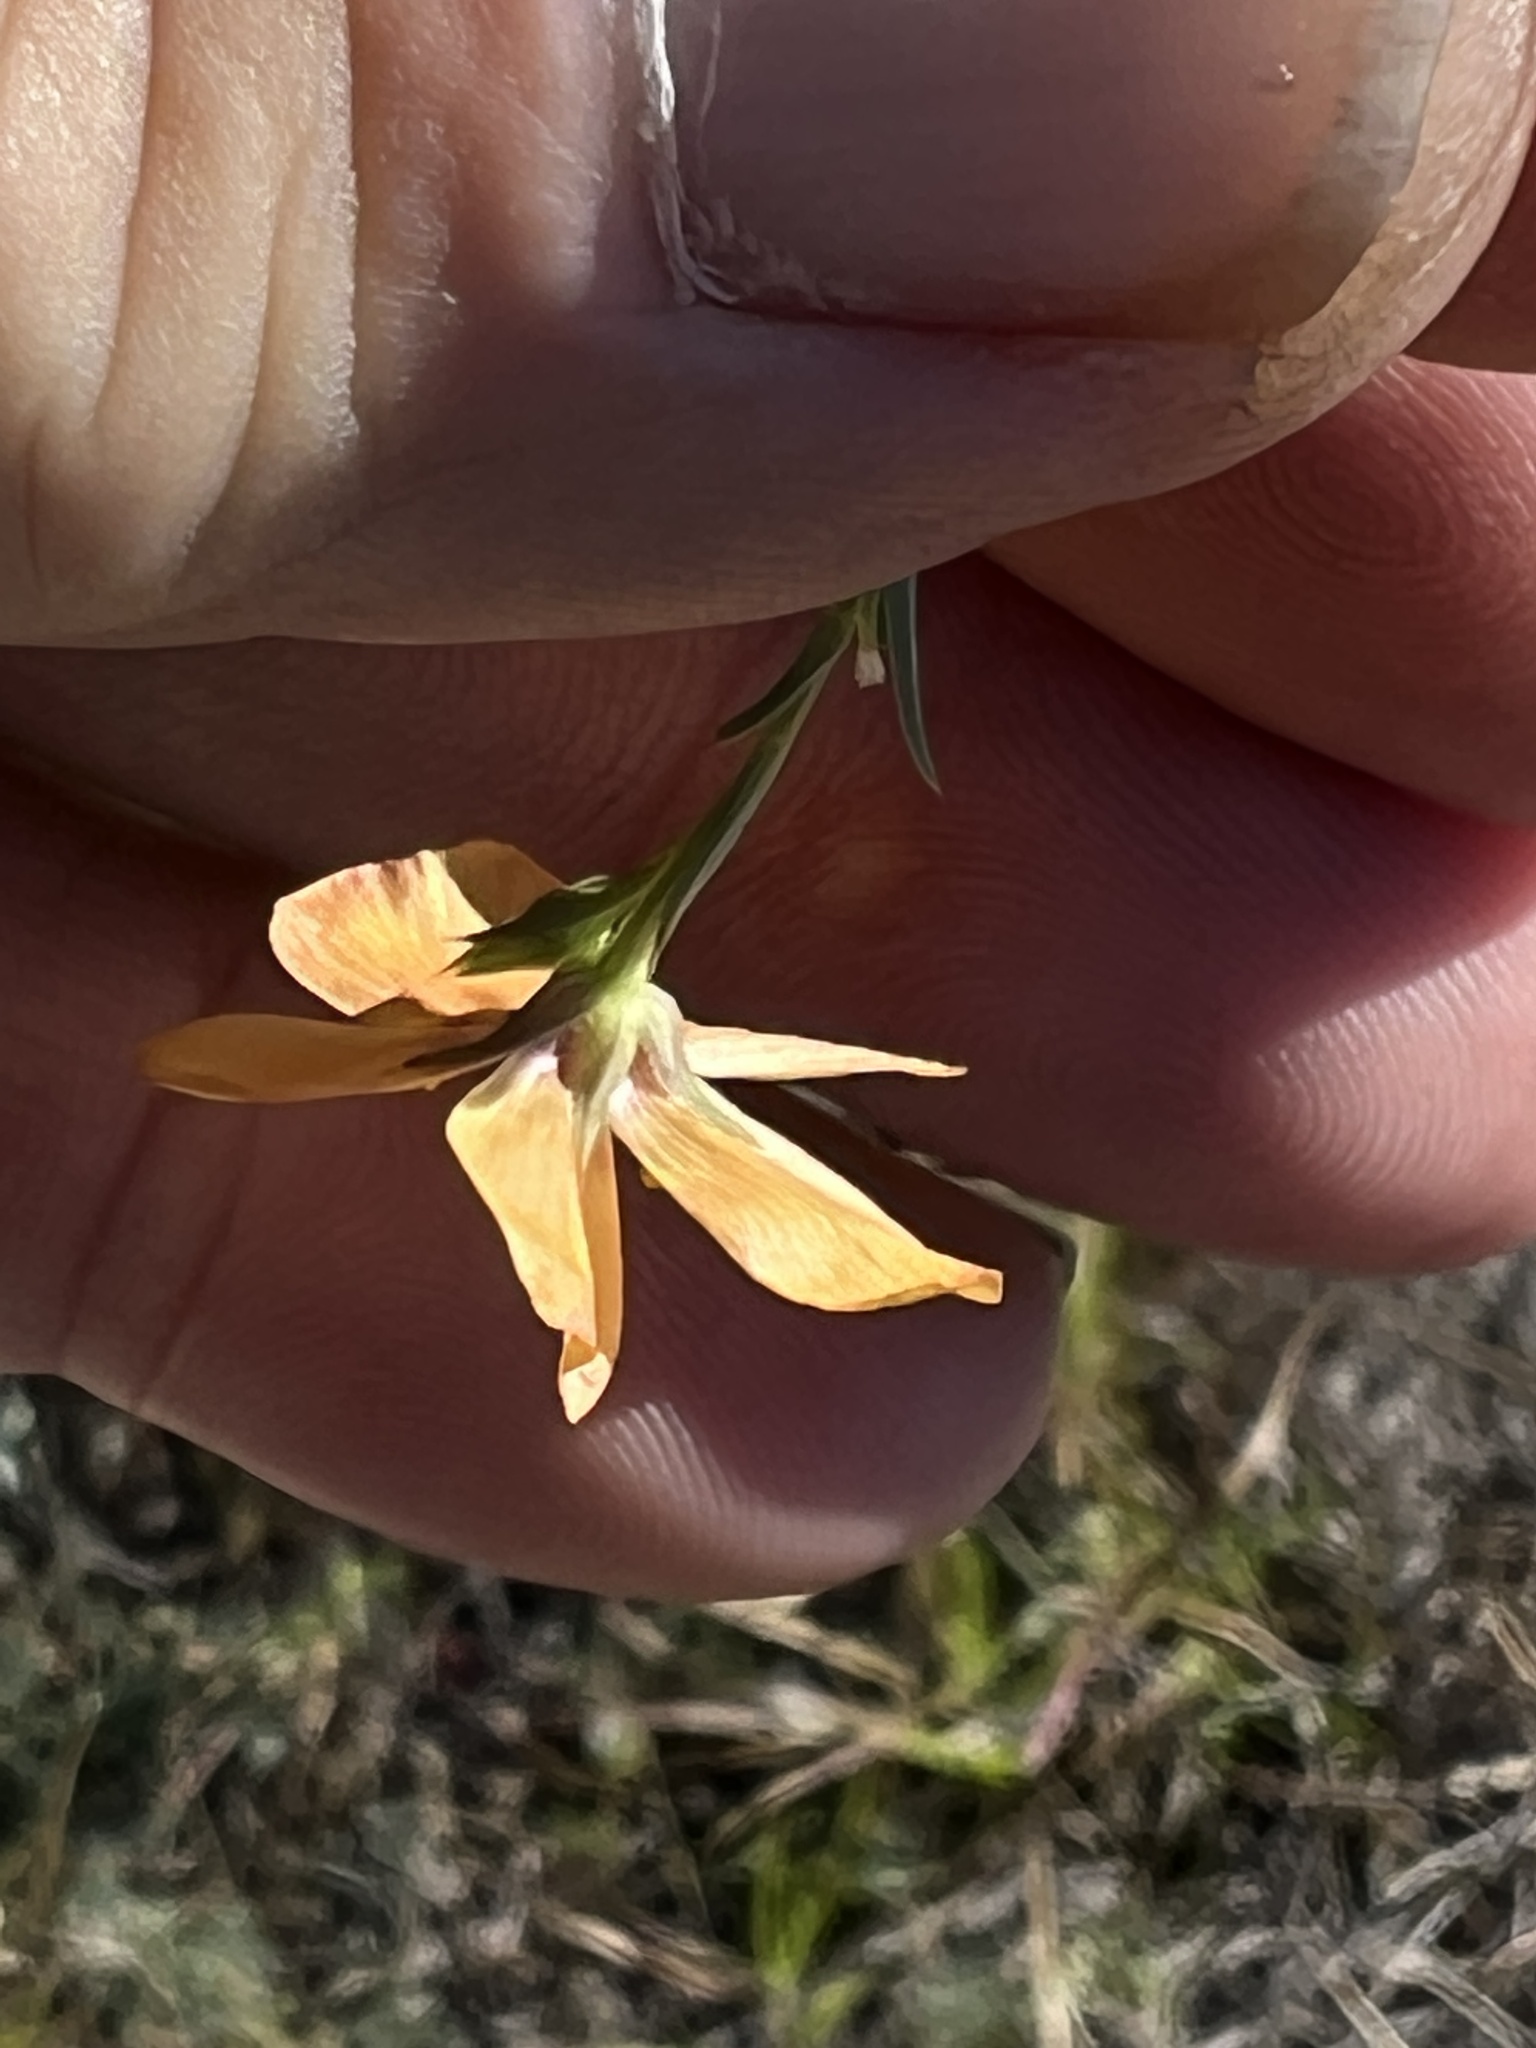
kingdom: Plantae
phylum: Tracheophyta
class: Magnoliopsida
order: Malpighiales
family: Linaceae
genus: Linum
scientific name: Linum berlandieri
